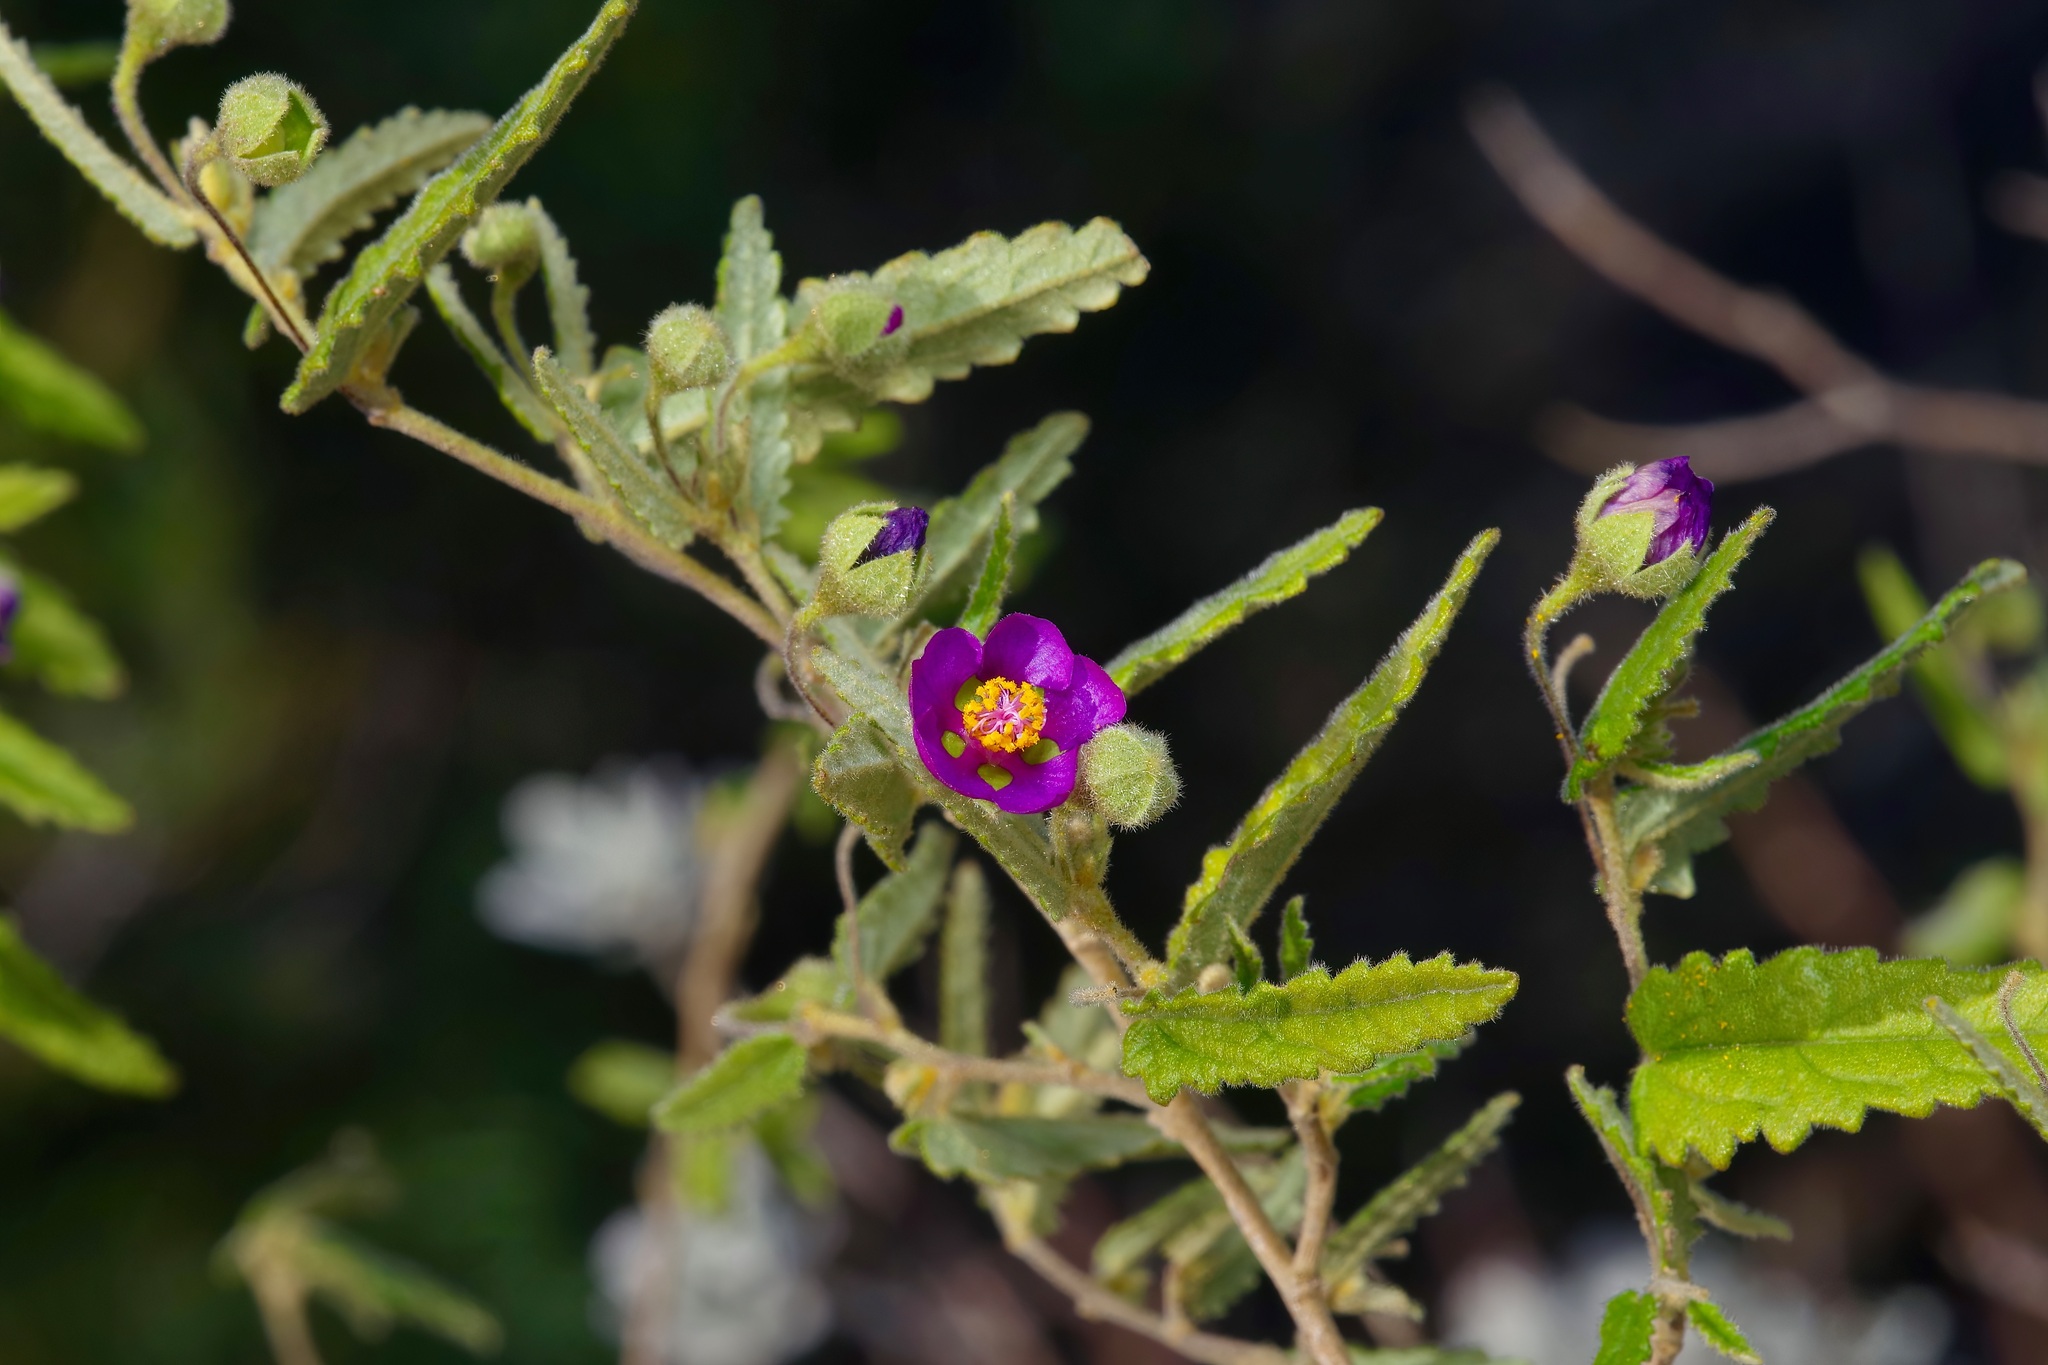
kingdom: Plantae
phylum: Tracheophyta
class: Magnoliopsida
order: Malvales
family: Malvaceae
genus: Meximalva
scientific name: Meximalva filipes
